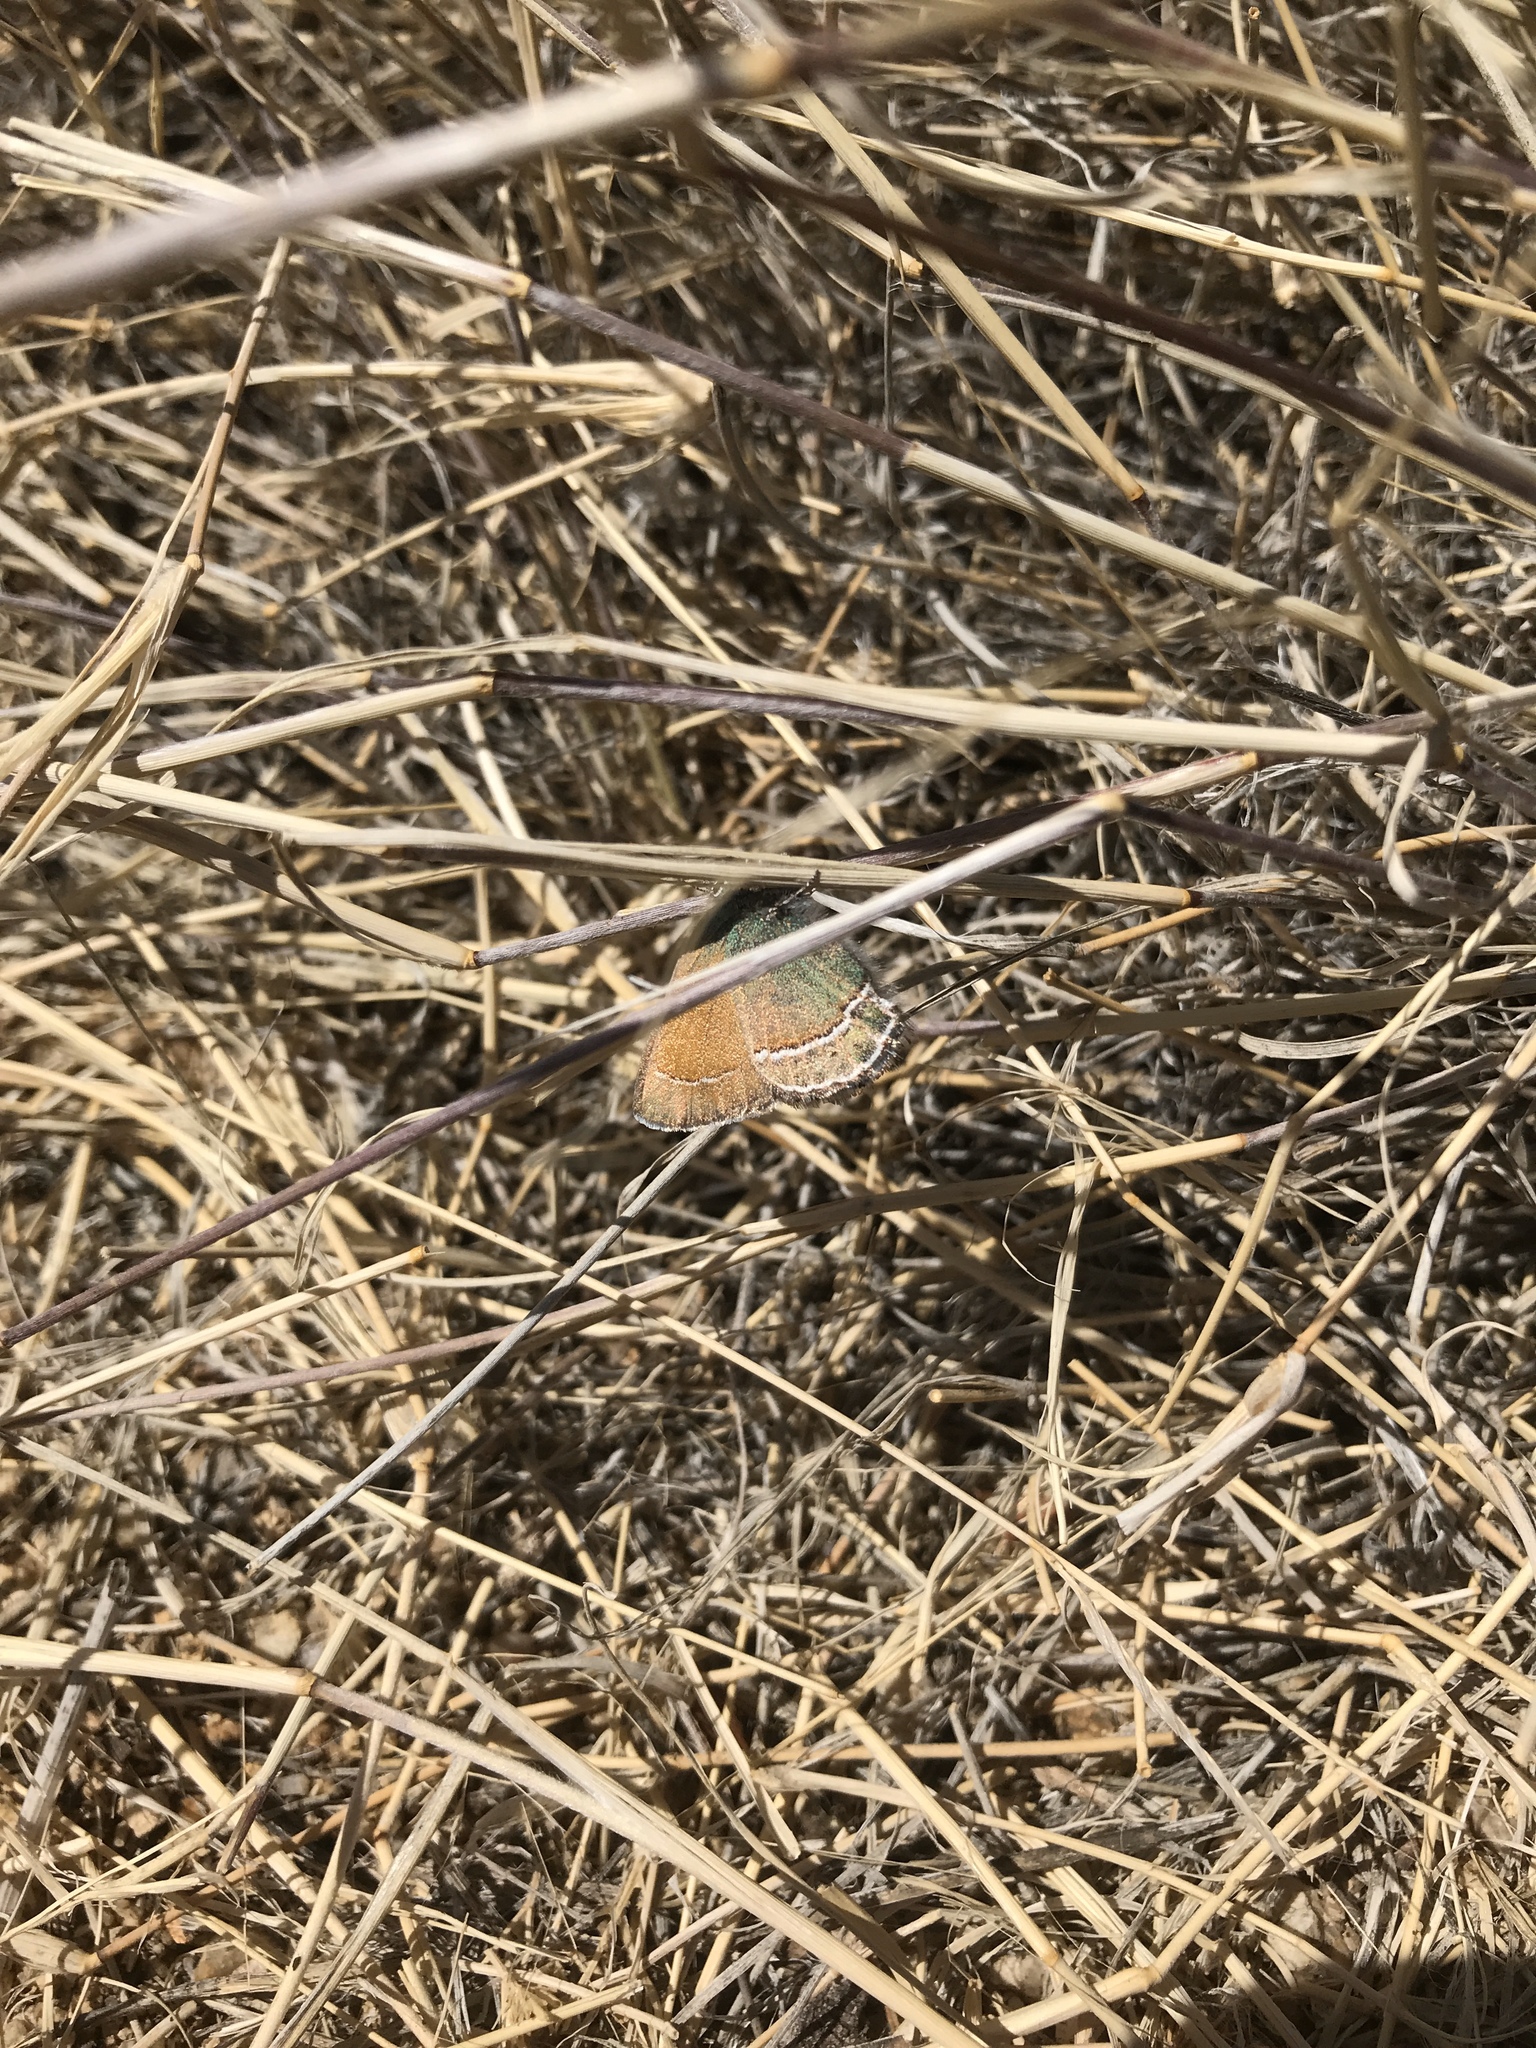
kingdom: Animalia
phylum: Arthropoda
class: Insecta
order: Lepidoptera
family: Lycaenidae
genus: Sandia
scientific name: Sandia mcfarlandi
